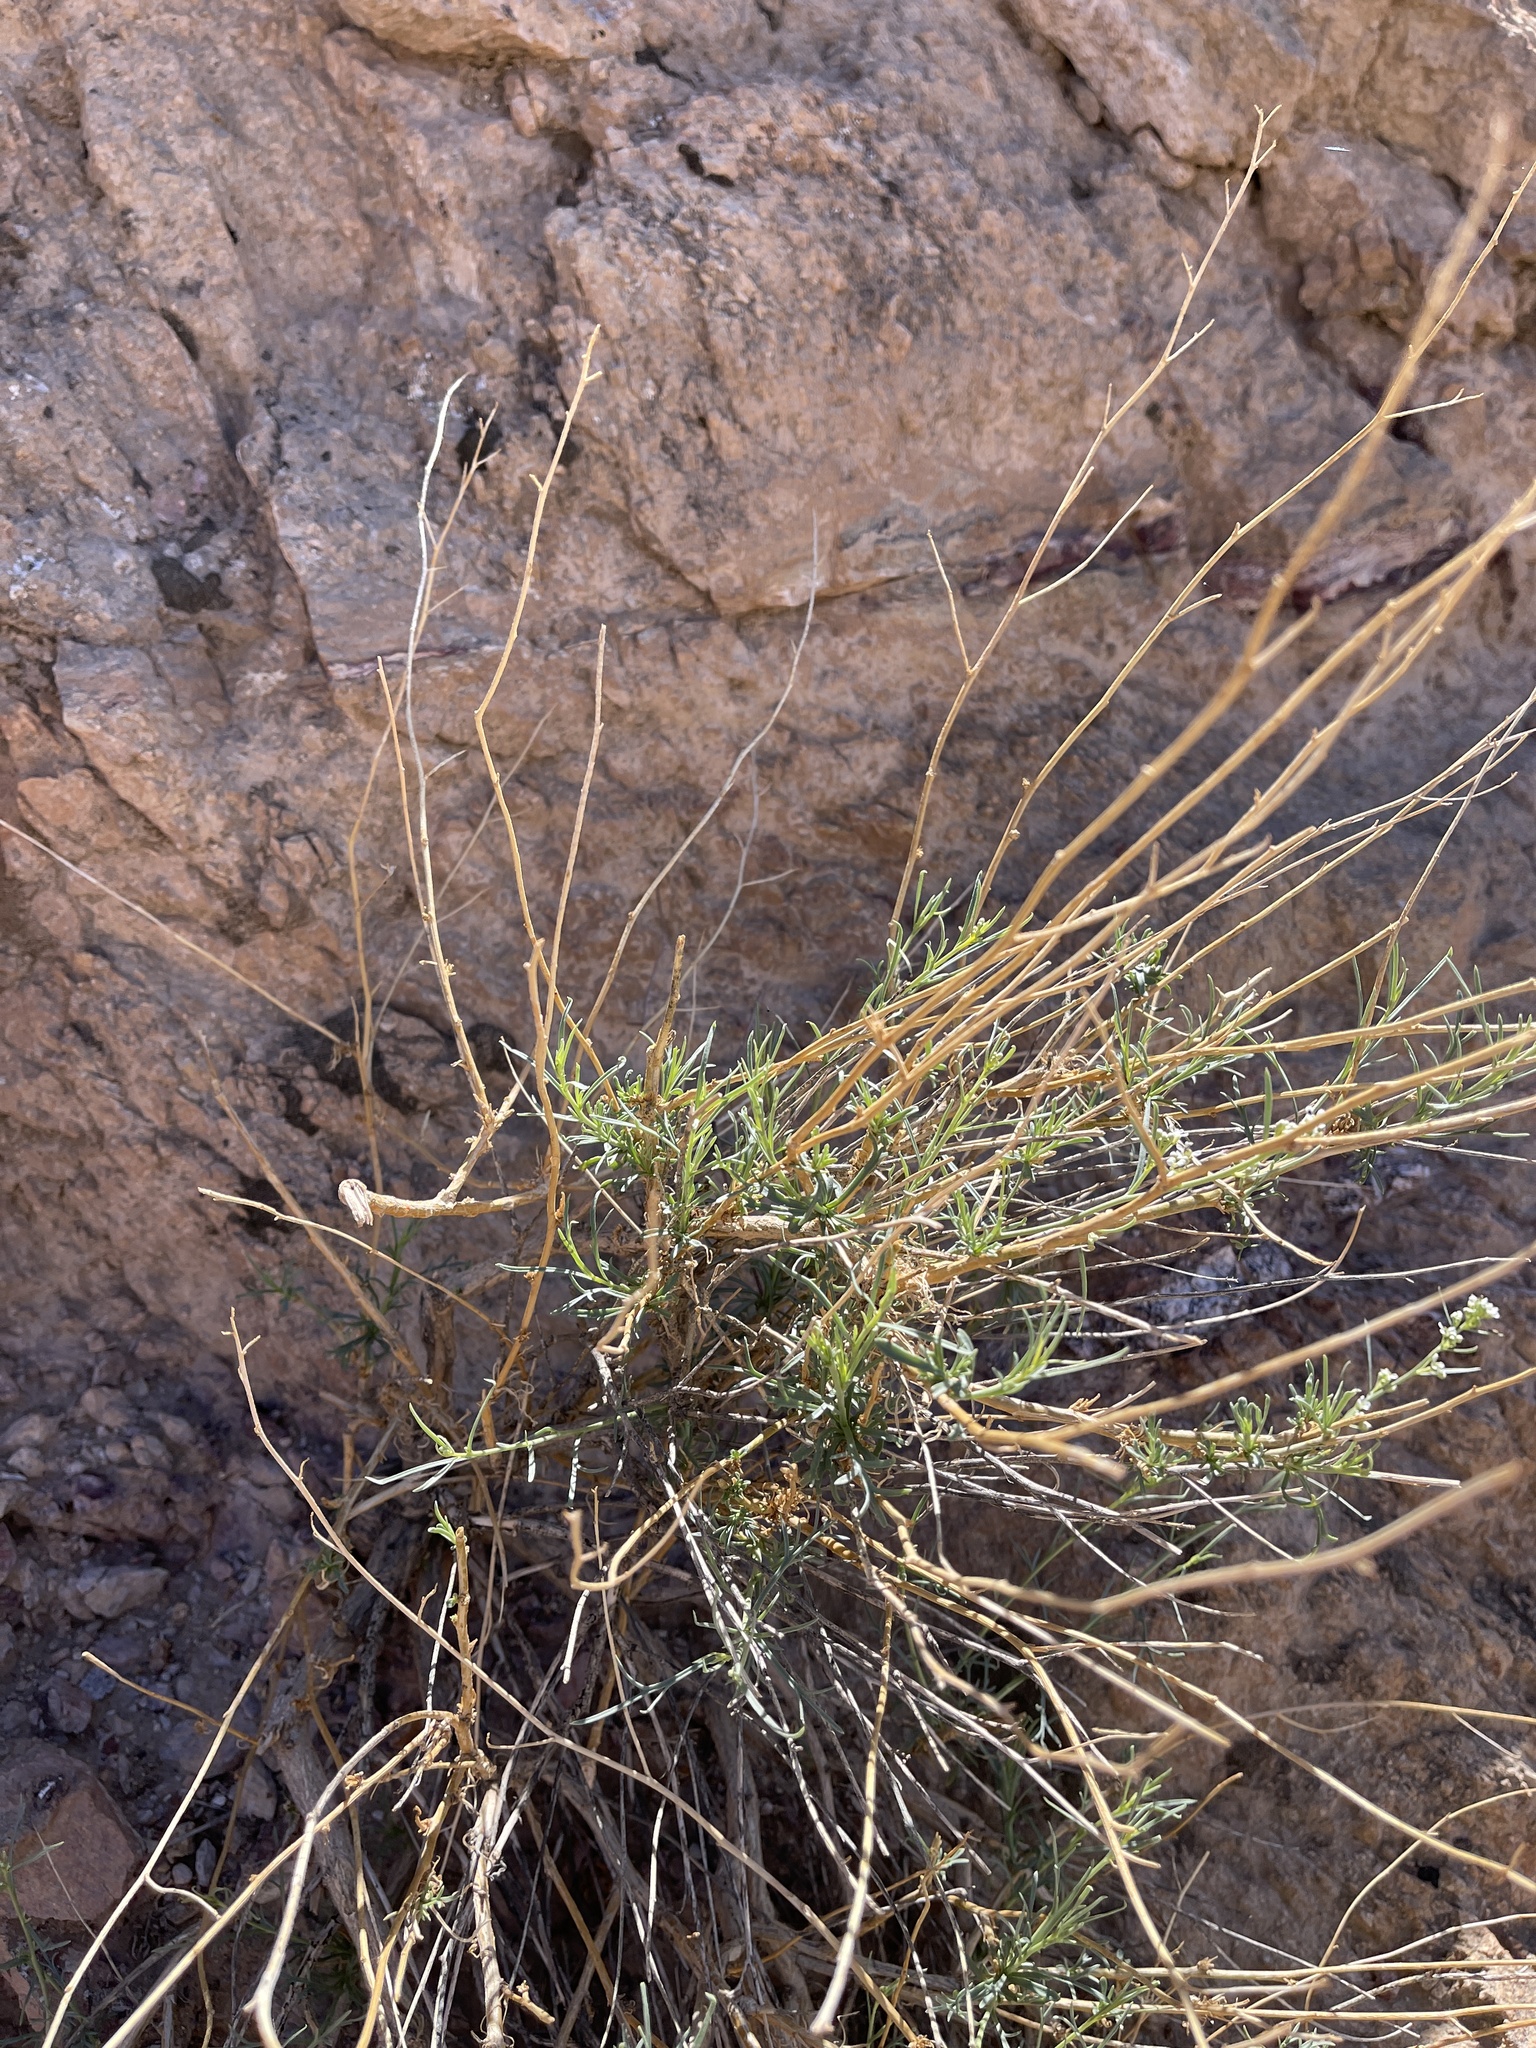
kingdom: Plantae
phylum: Tracheophyta
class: Magnoliopsida
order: Brassicales
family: Brassicaceae
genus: Lepidium
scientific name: Lepidium fremontii
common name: Fremont's pepperwort
